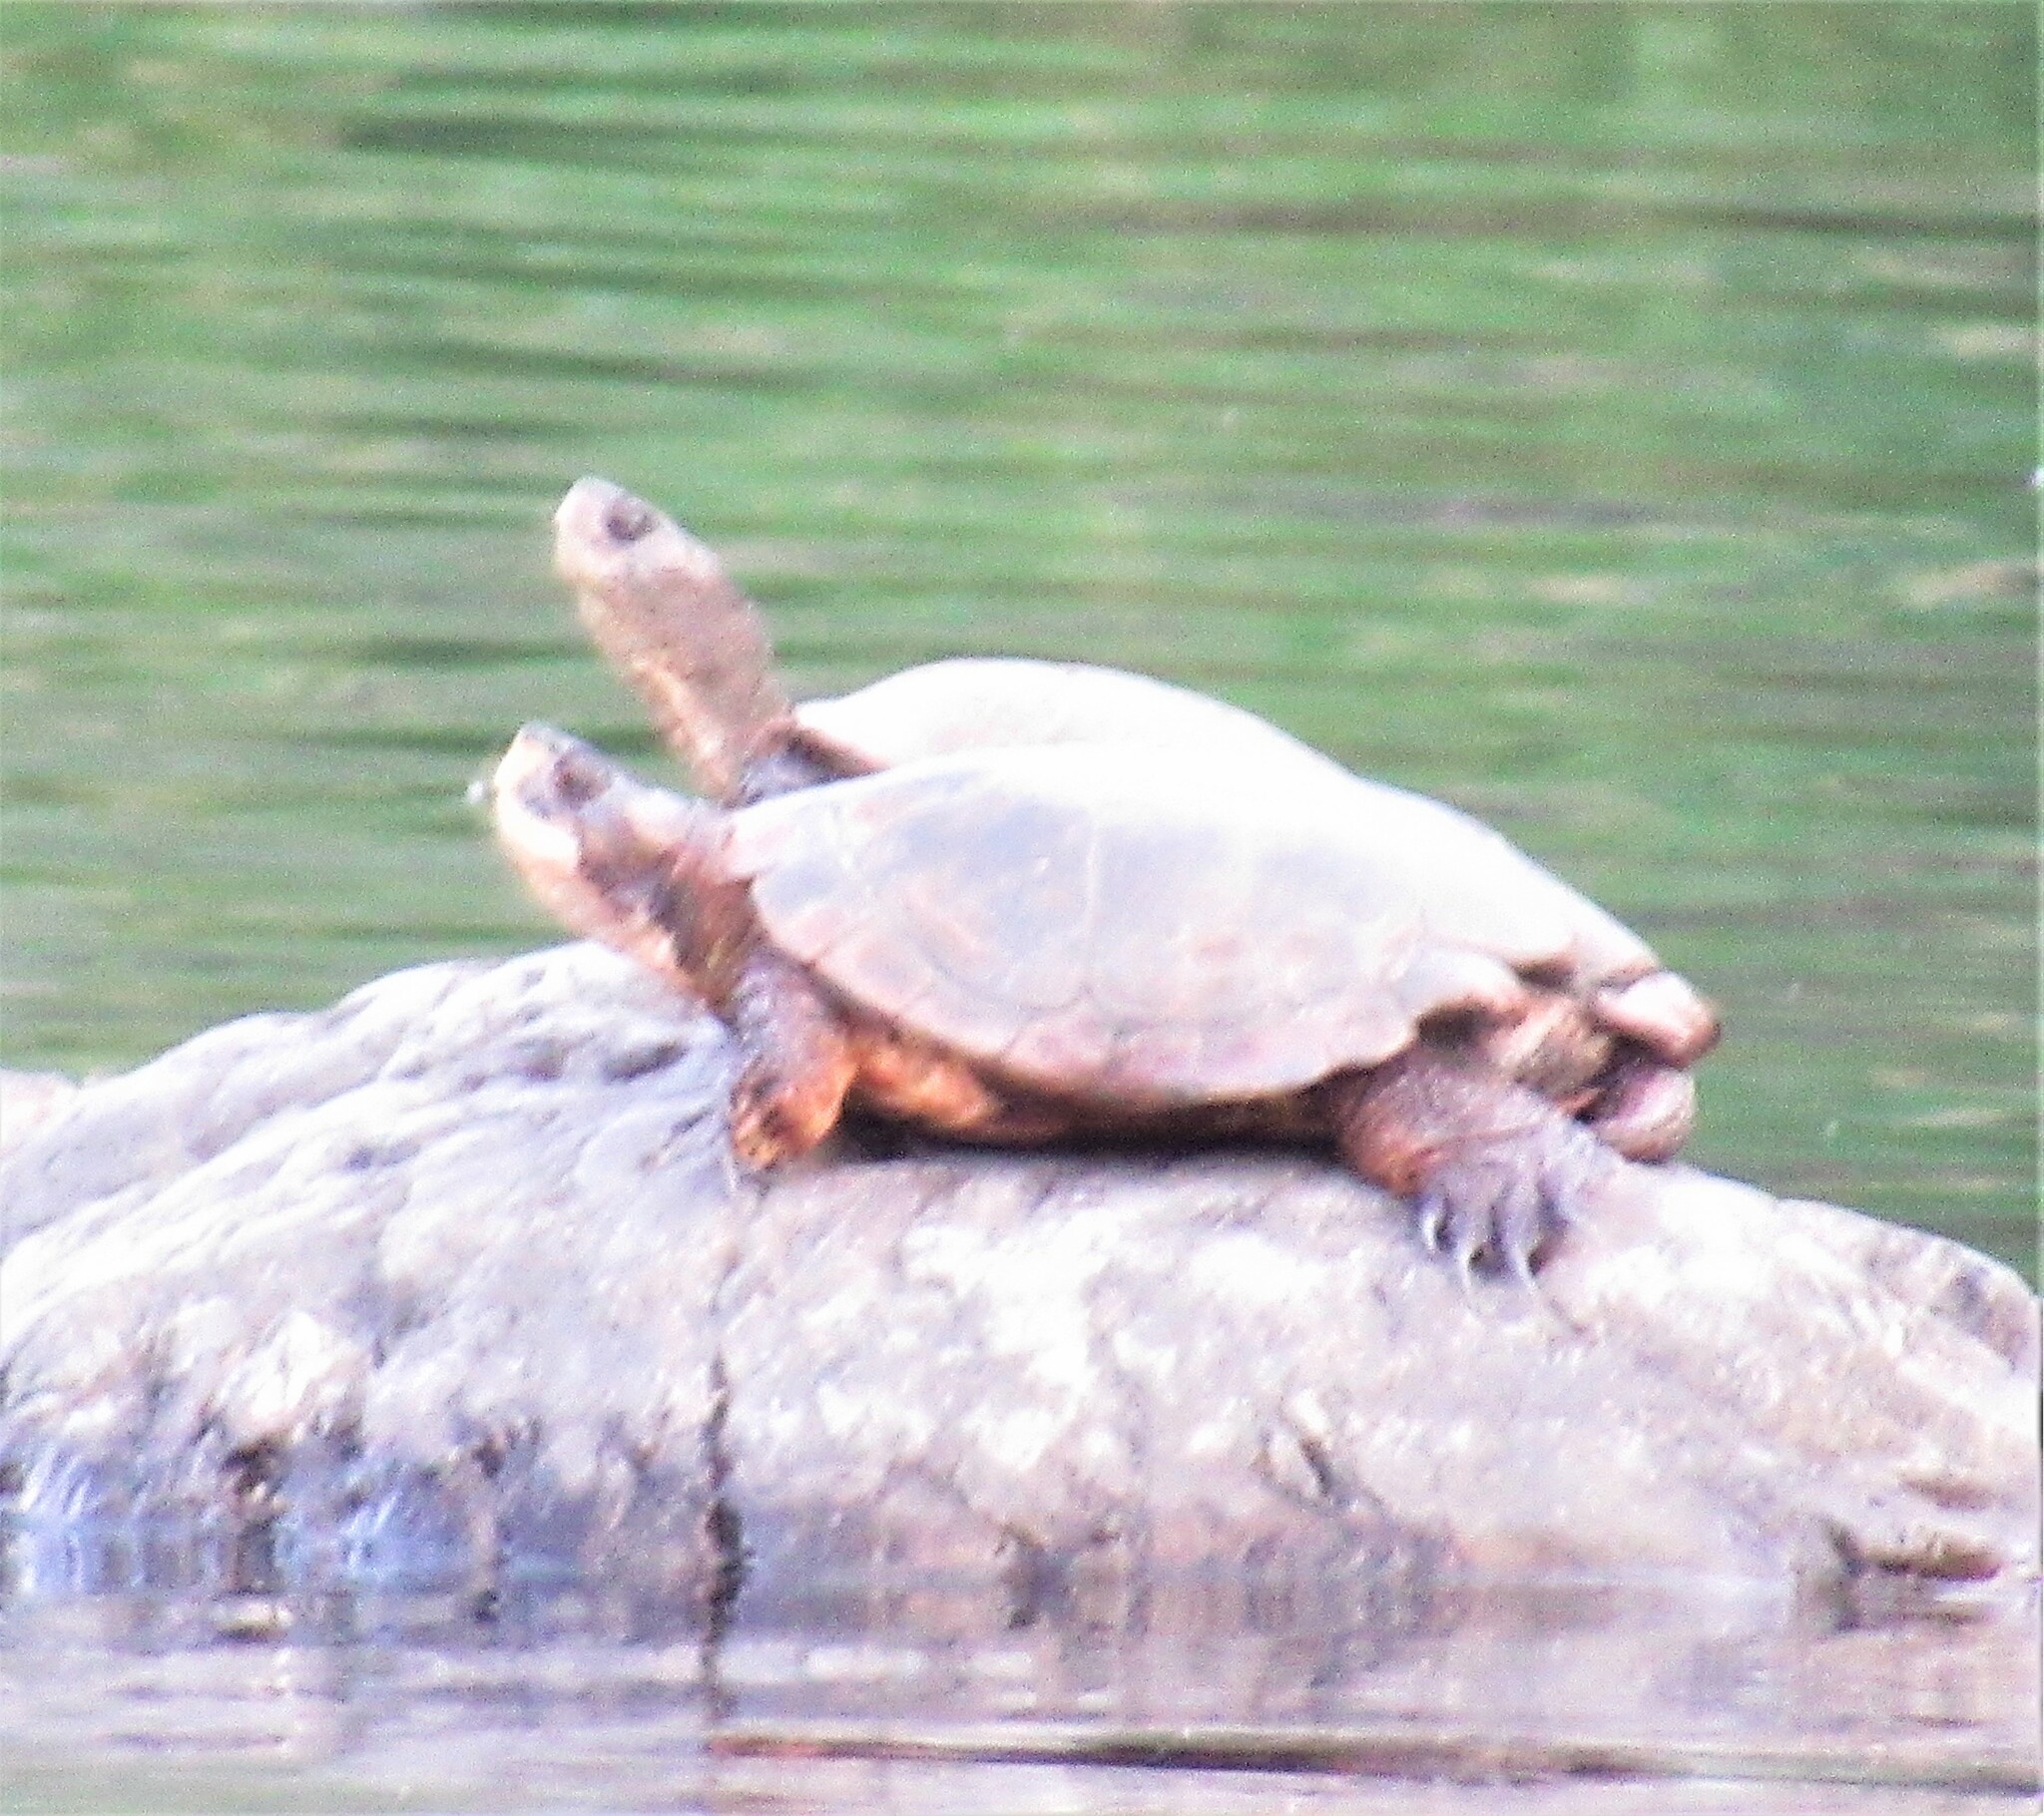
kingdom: Animalia
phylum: Chordata
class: Testudines
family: Emydidae
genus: Actinemys
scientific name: Actinemys marmorata
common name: Western pond turtle
